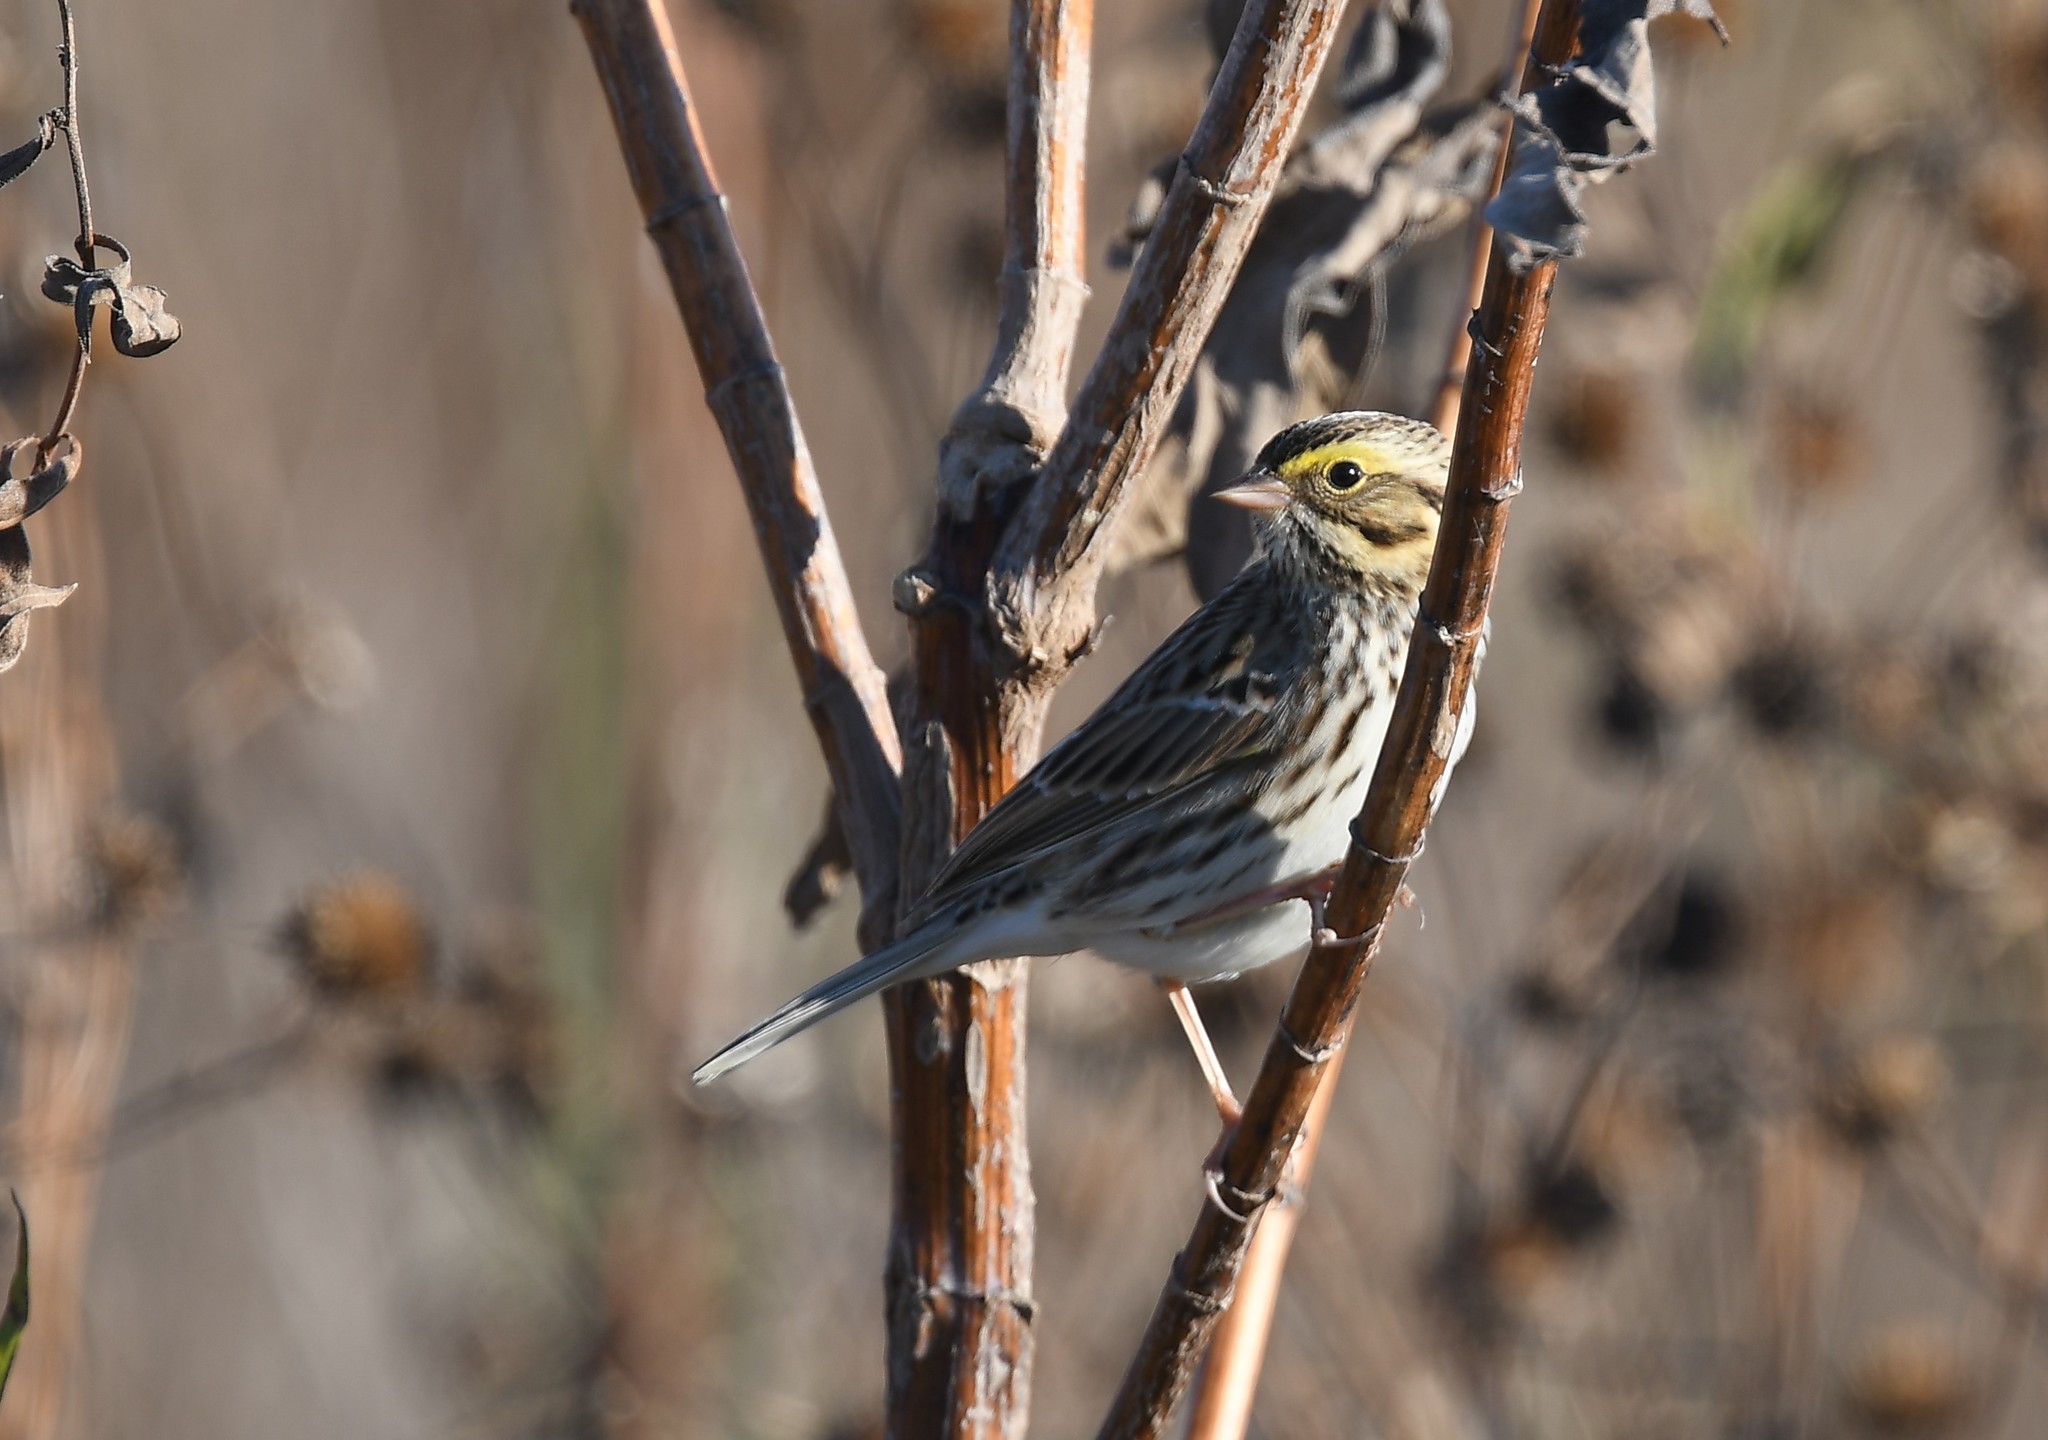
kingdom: Animalia
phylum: Chordata
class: Aves
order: Passeriformes
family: Passerellidae
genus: Passerculus
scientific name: Passerculus sandwichensis
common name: Savannah sparrow
